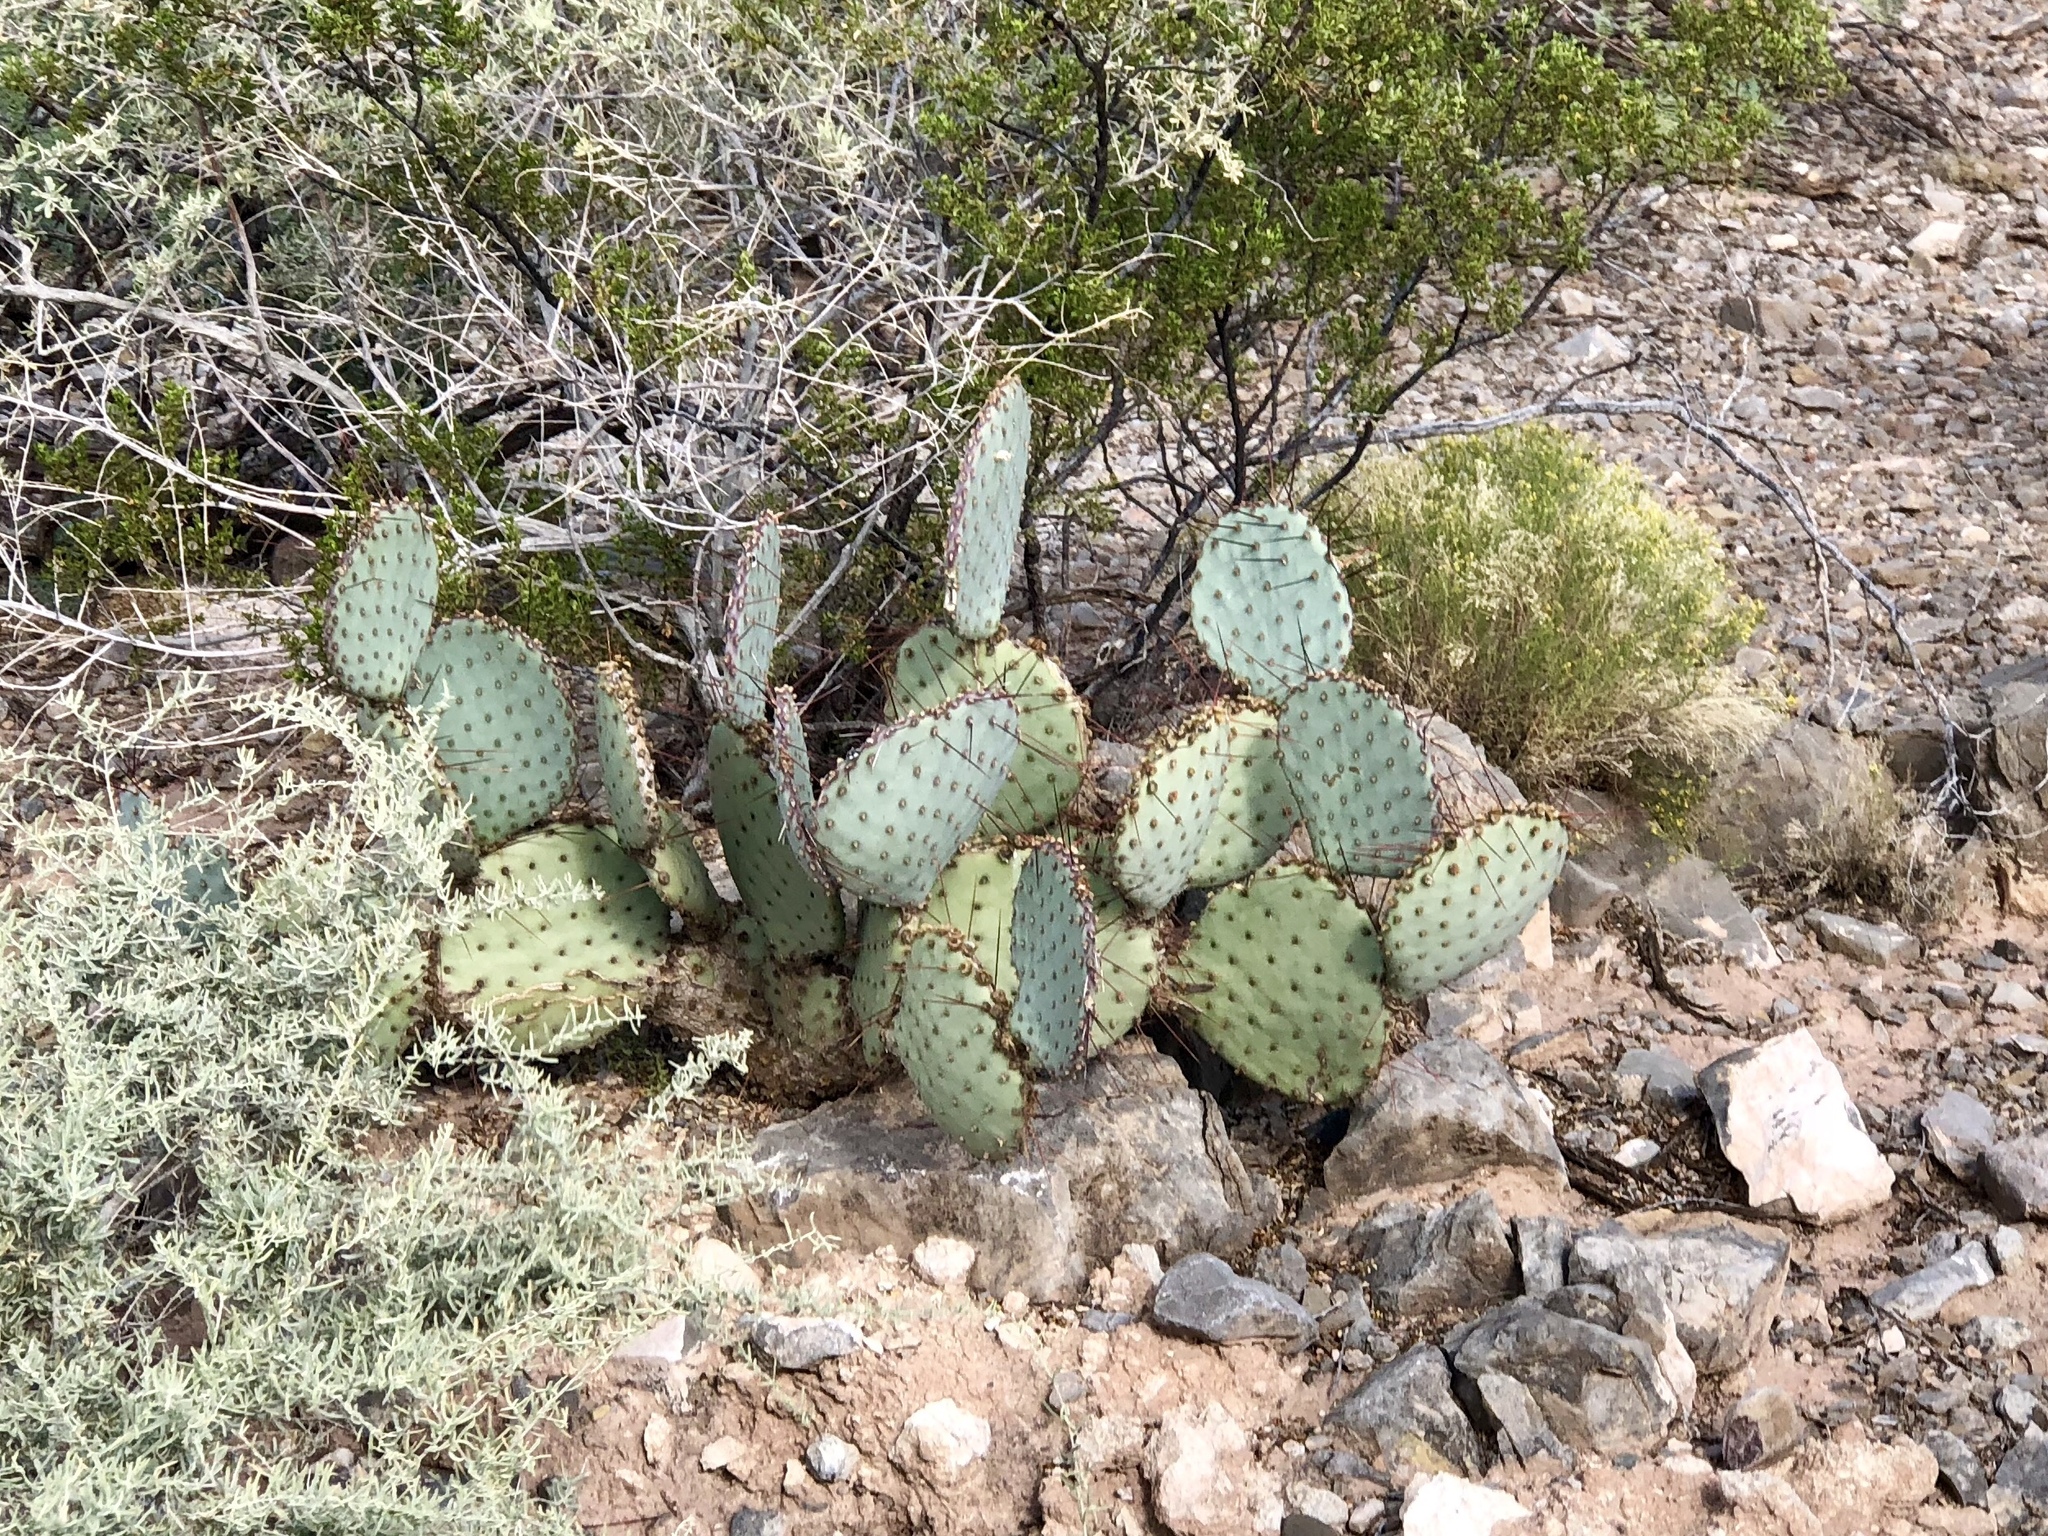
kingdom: Plantae
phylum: Tracheophyta
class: Magnoliopsida
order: Caryophyllales
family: Cactaceae
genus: Opuntia
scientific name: Opuntia macrocentra
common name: Purple prickly-pear
